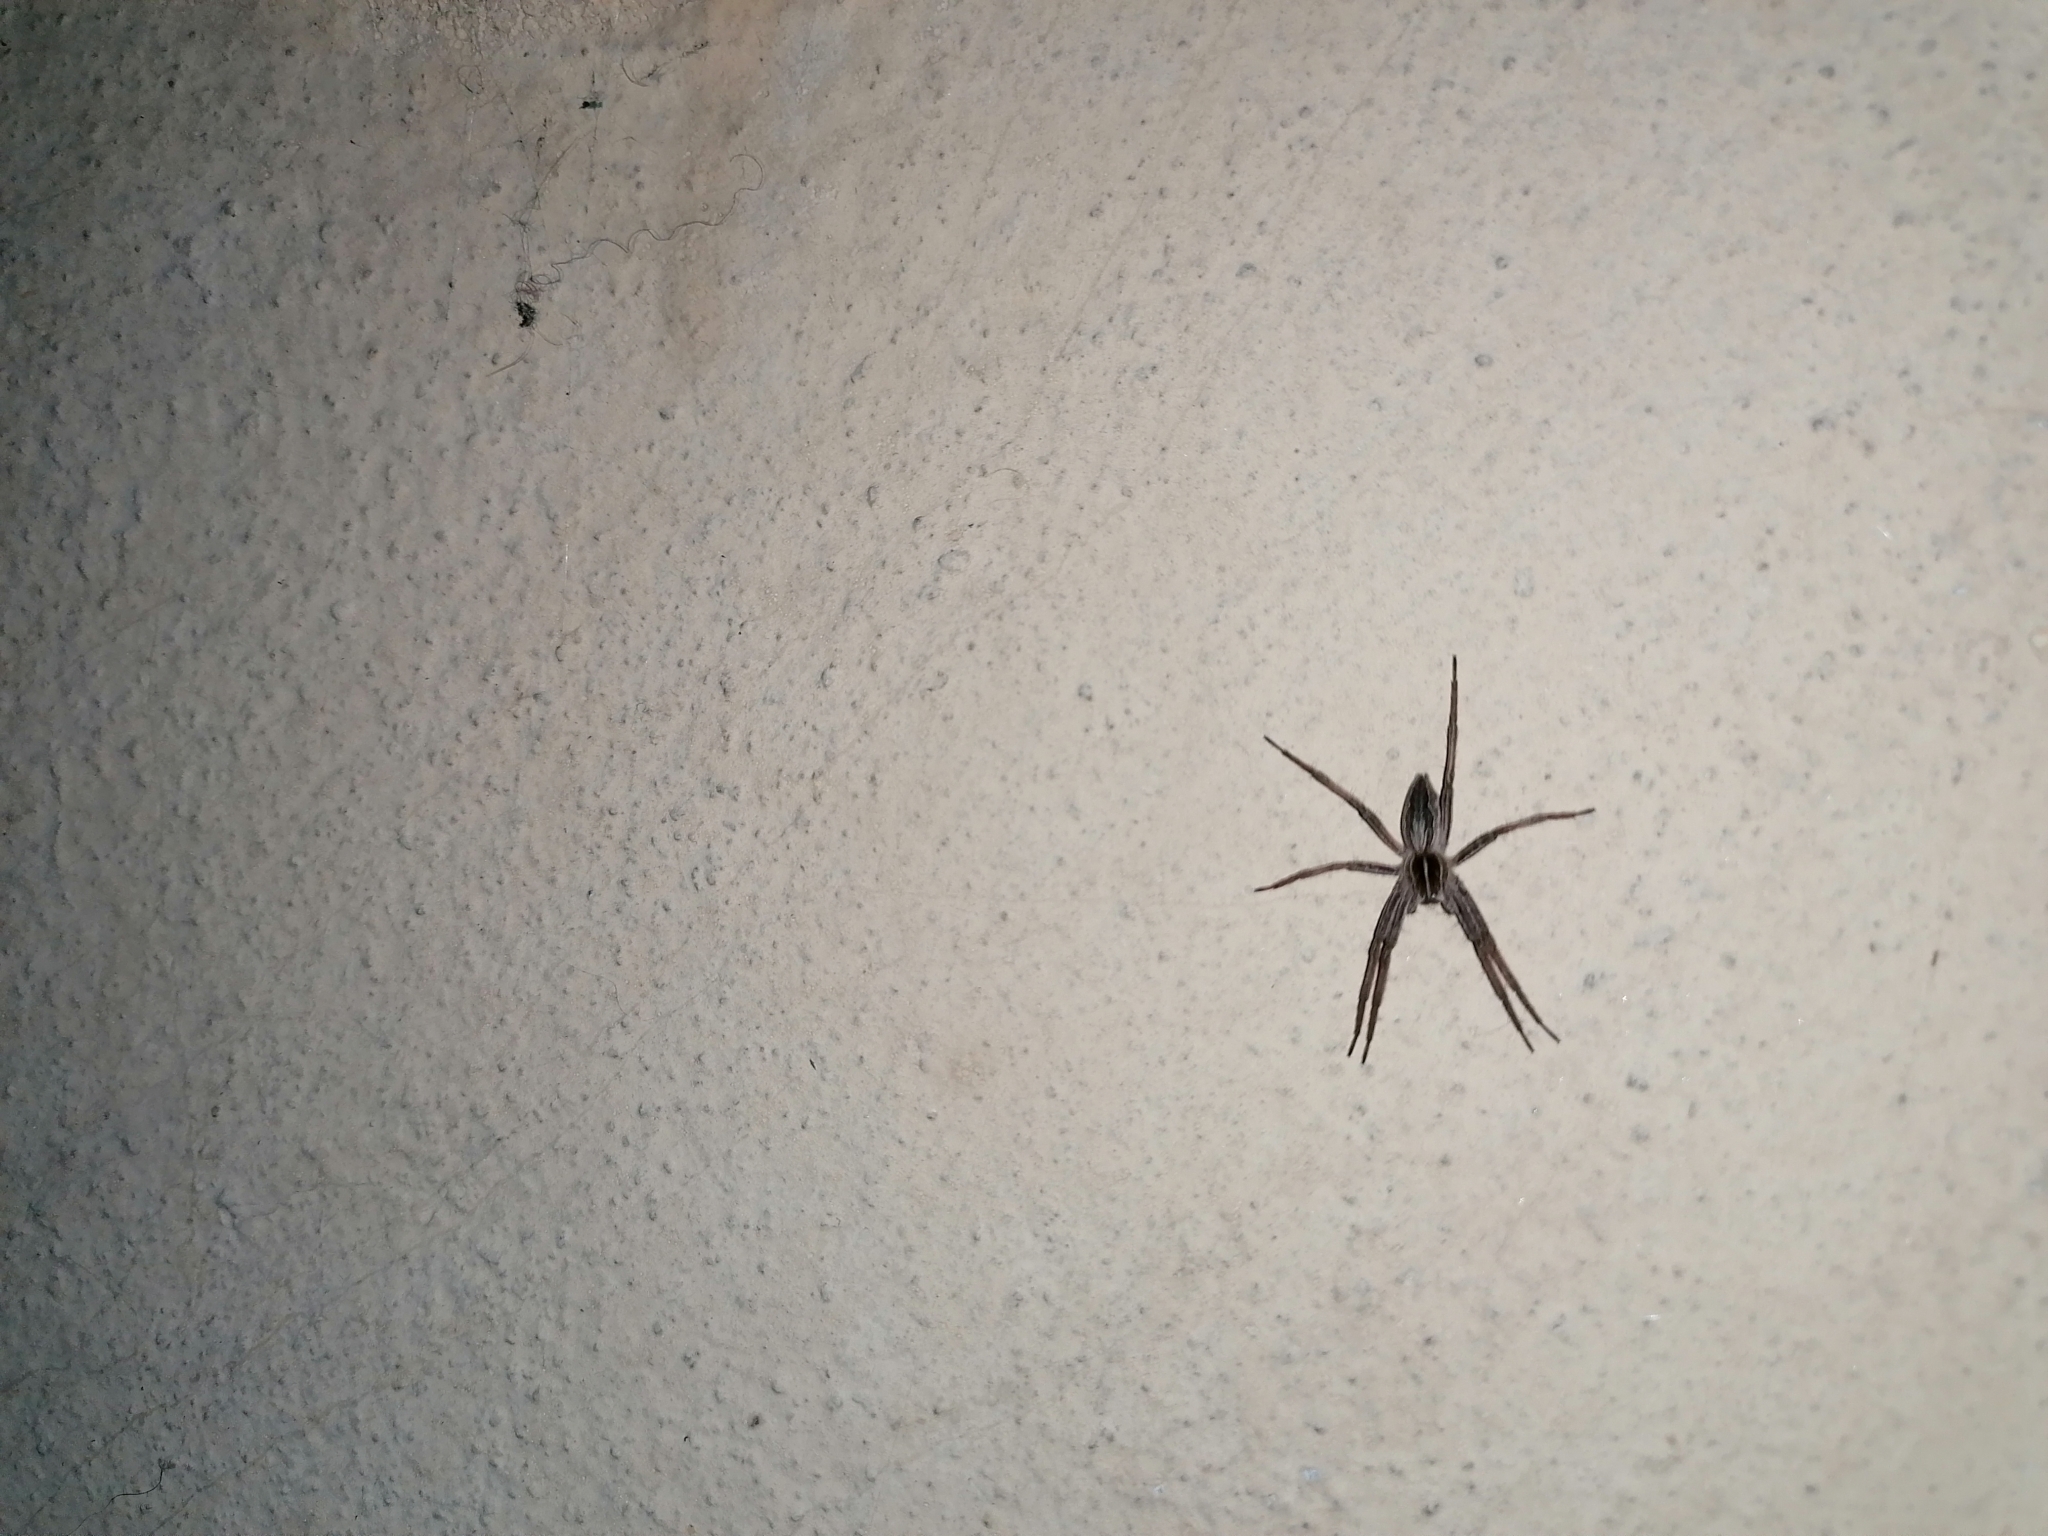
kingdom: Animalia
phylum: Arthropoda
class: Arachnida
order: Araneae
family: Pisauridae
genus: Pisaura
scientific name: Pisaura mirabilis
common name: Tent spider
